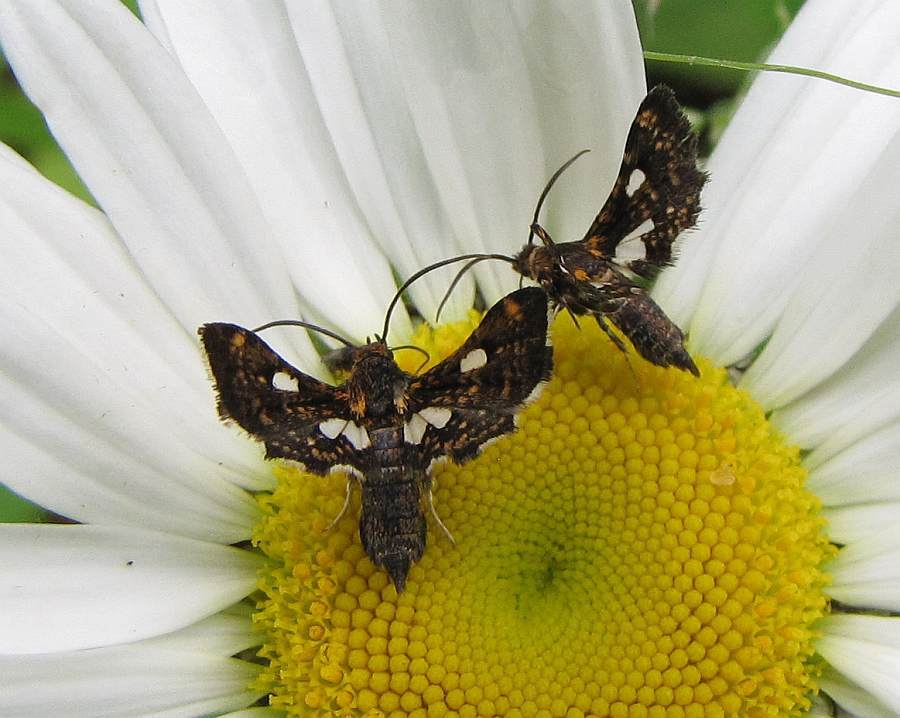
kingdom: Animalia
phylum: Arthropoda
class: Insecta
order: Lepidoptera
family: Thyrididae
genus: Thyris
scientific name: Thyris maculata
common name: Spotted thyris moth
